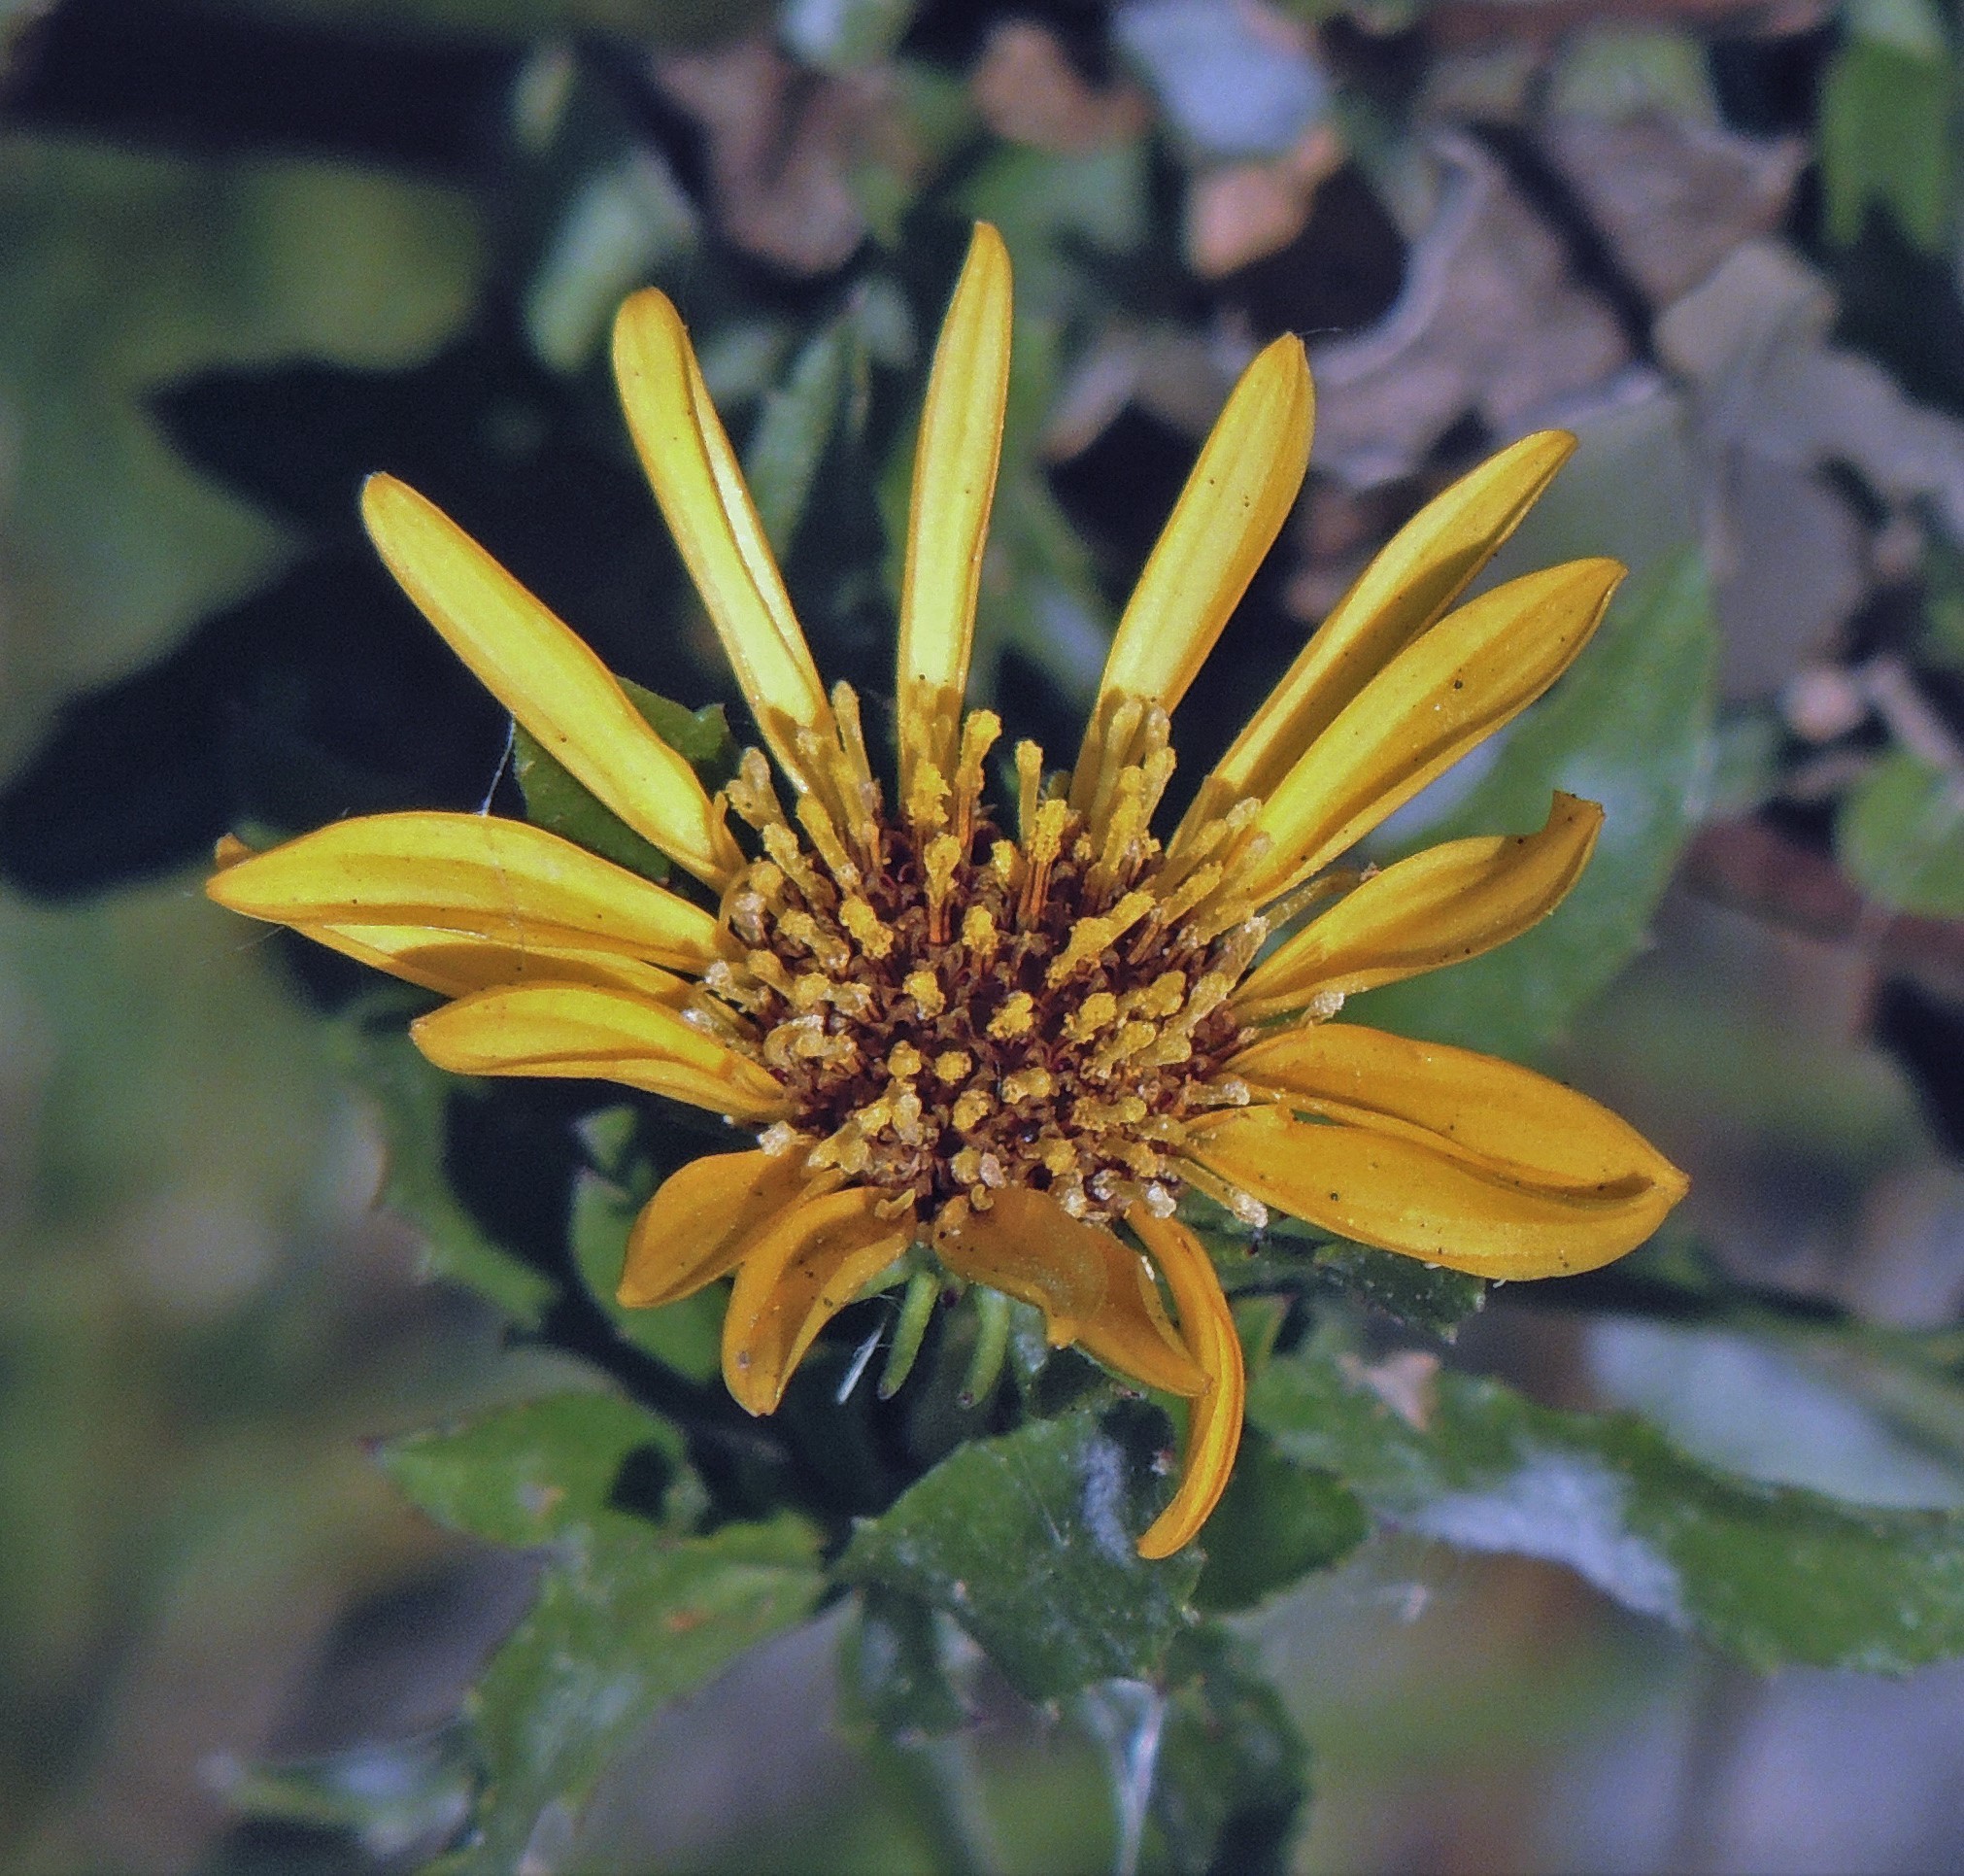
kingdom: Plantae
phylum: Tracheophyta
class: Magnoliopsida
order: Asterales
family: Asteraceae
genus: Grindelia
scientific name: Grindelia pulchella
